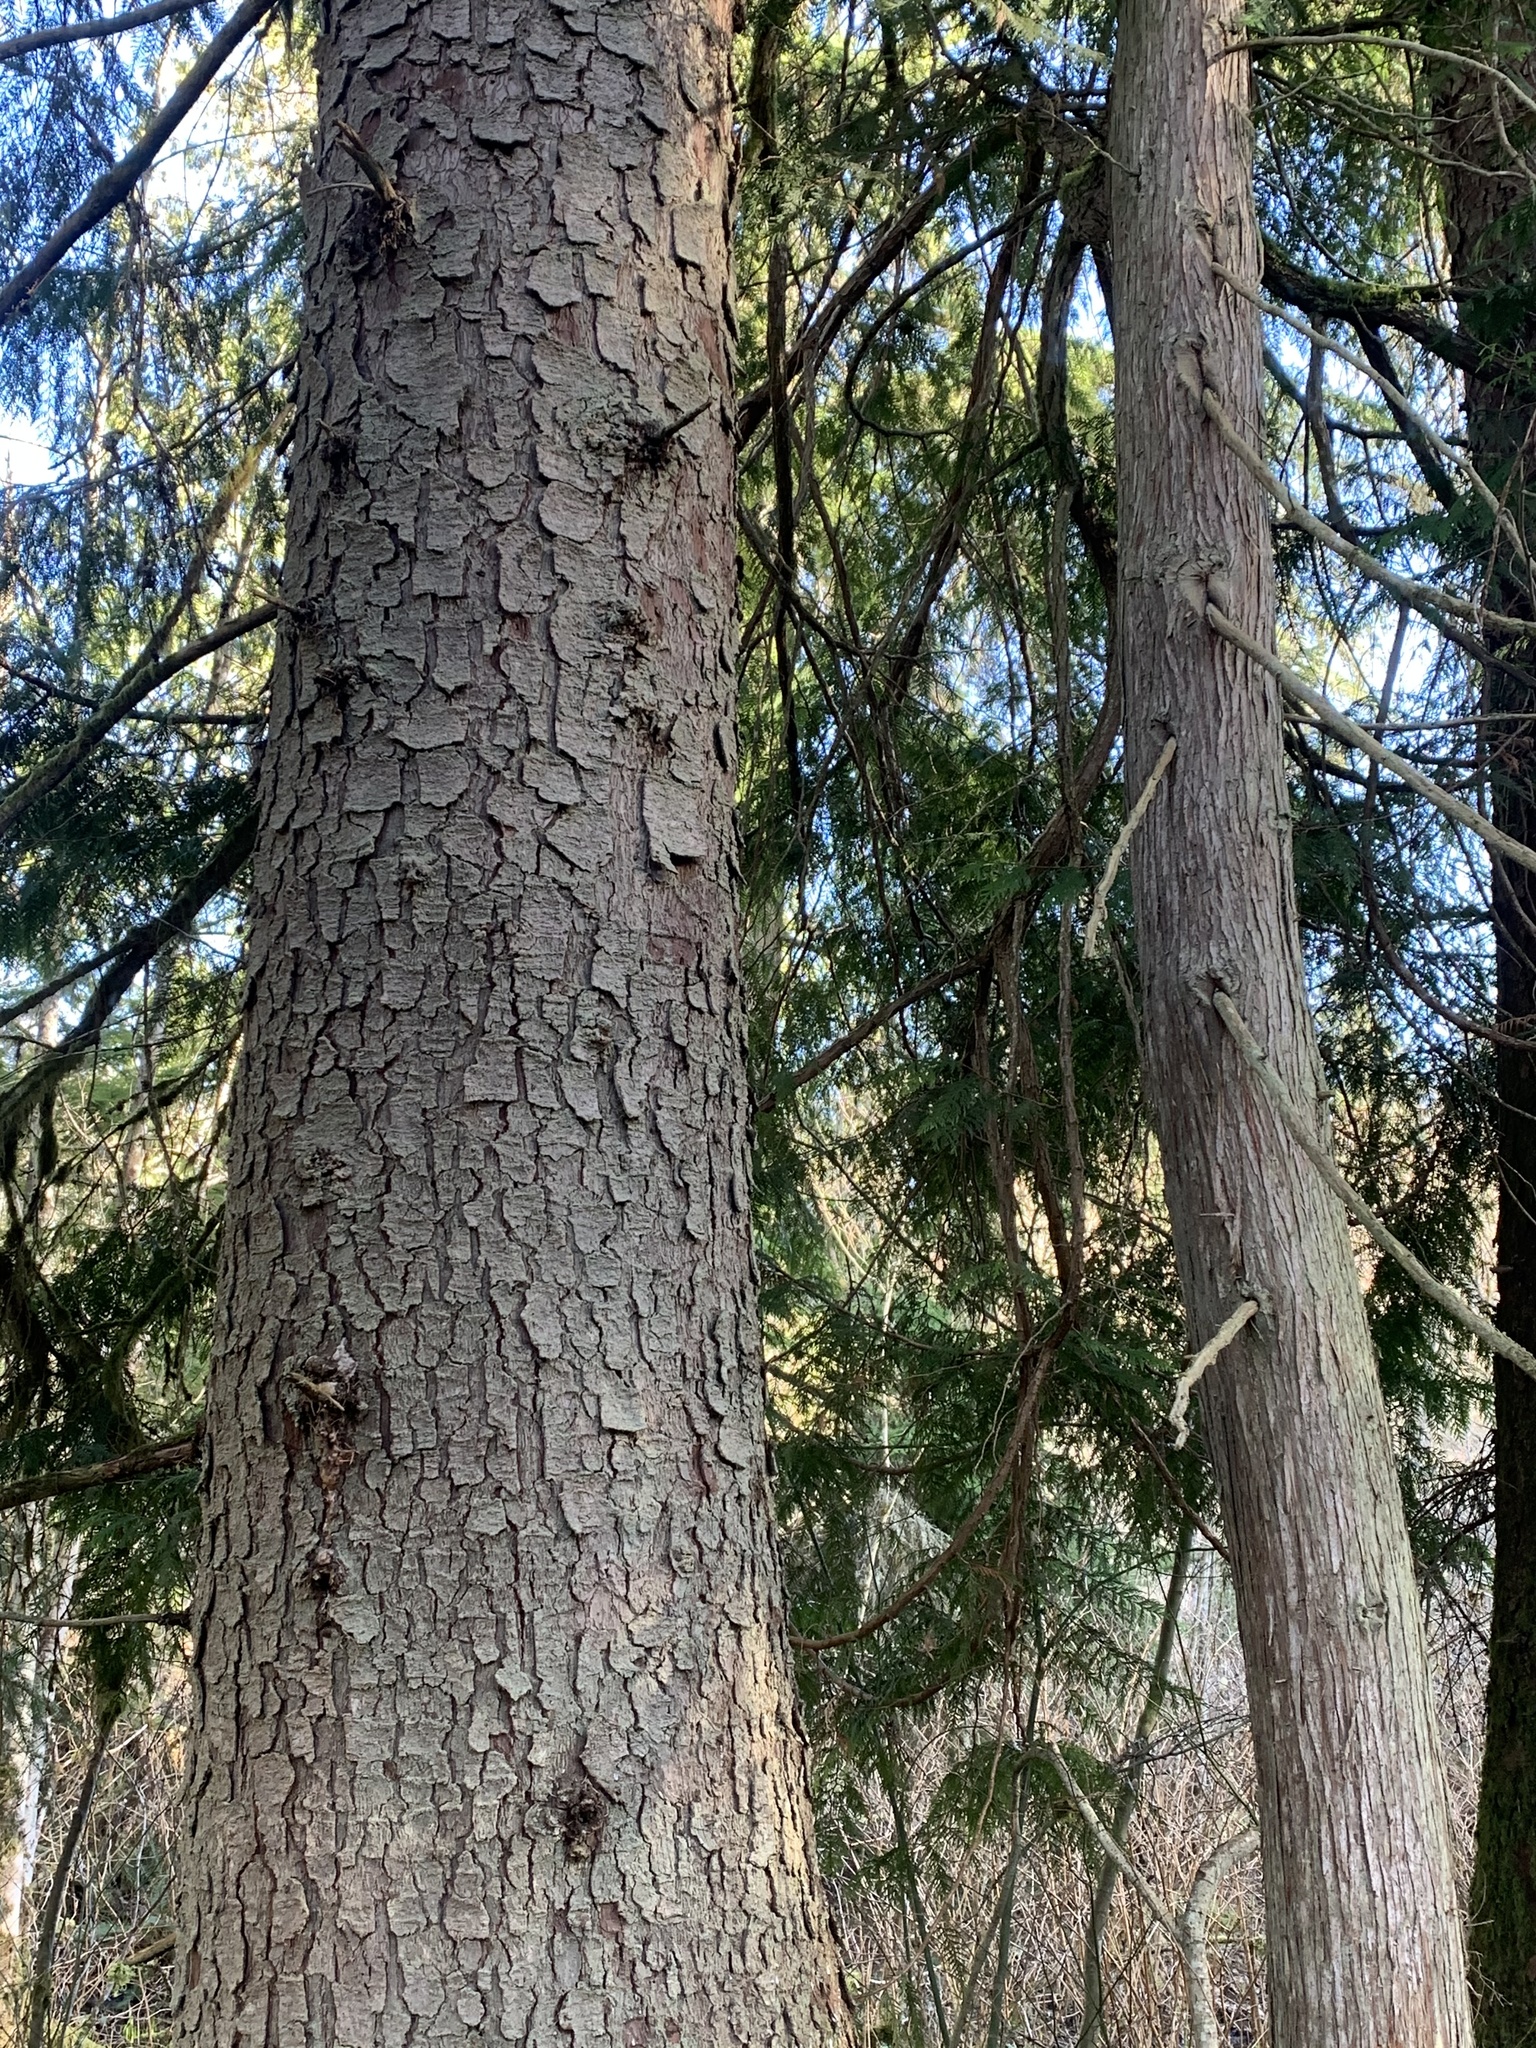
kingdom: Plantae
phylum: Tracheophyta
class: Pinopsida
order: Pinales
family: Pinaceae
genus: Picea
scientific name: Picea sitchensis
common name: Sitka spruce
